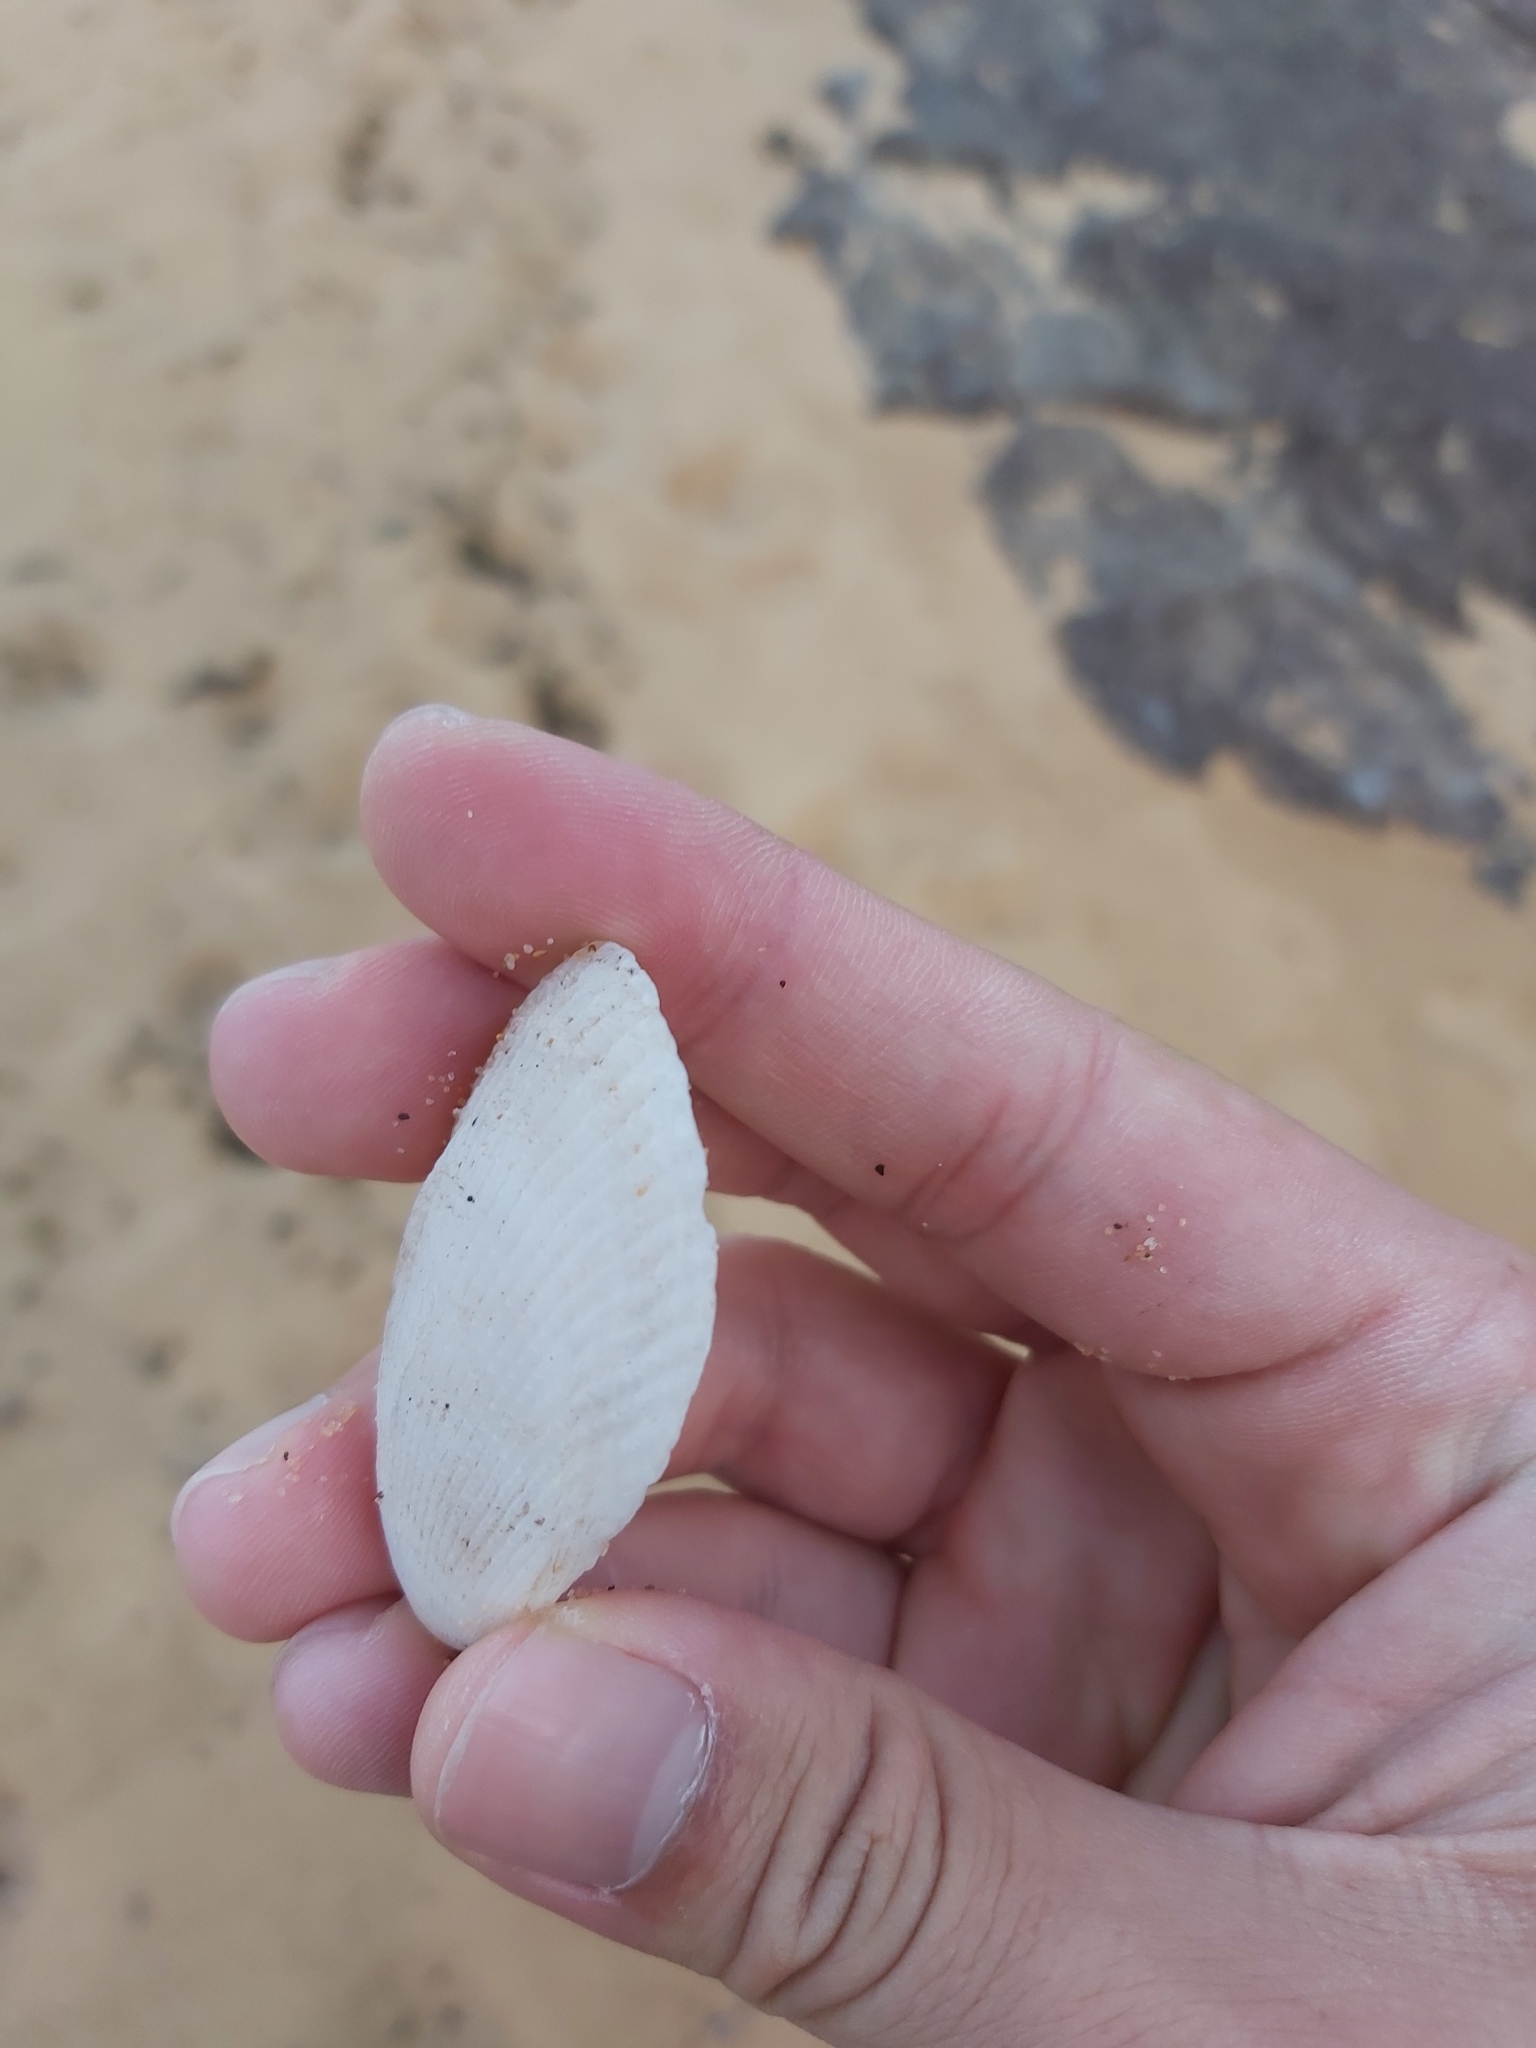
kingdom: Animalia
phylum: Mollusca
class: Bivalvia
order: Limida
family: Limidae
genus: Lima
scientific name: Lima nimbifer
